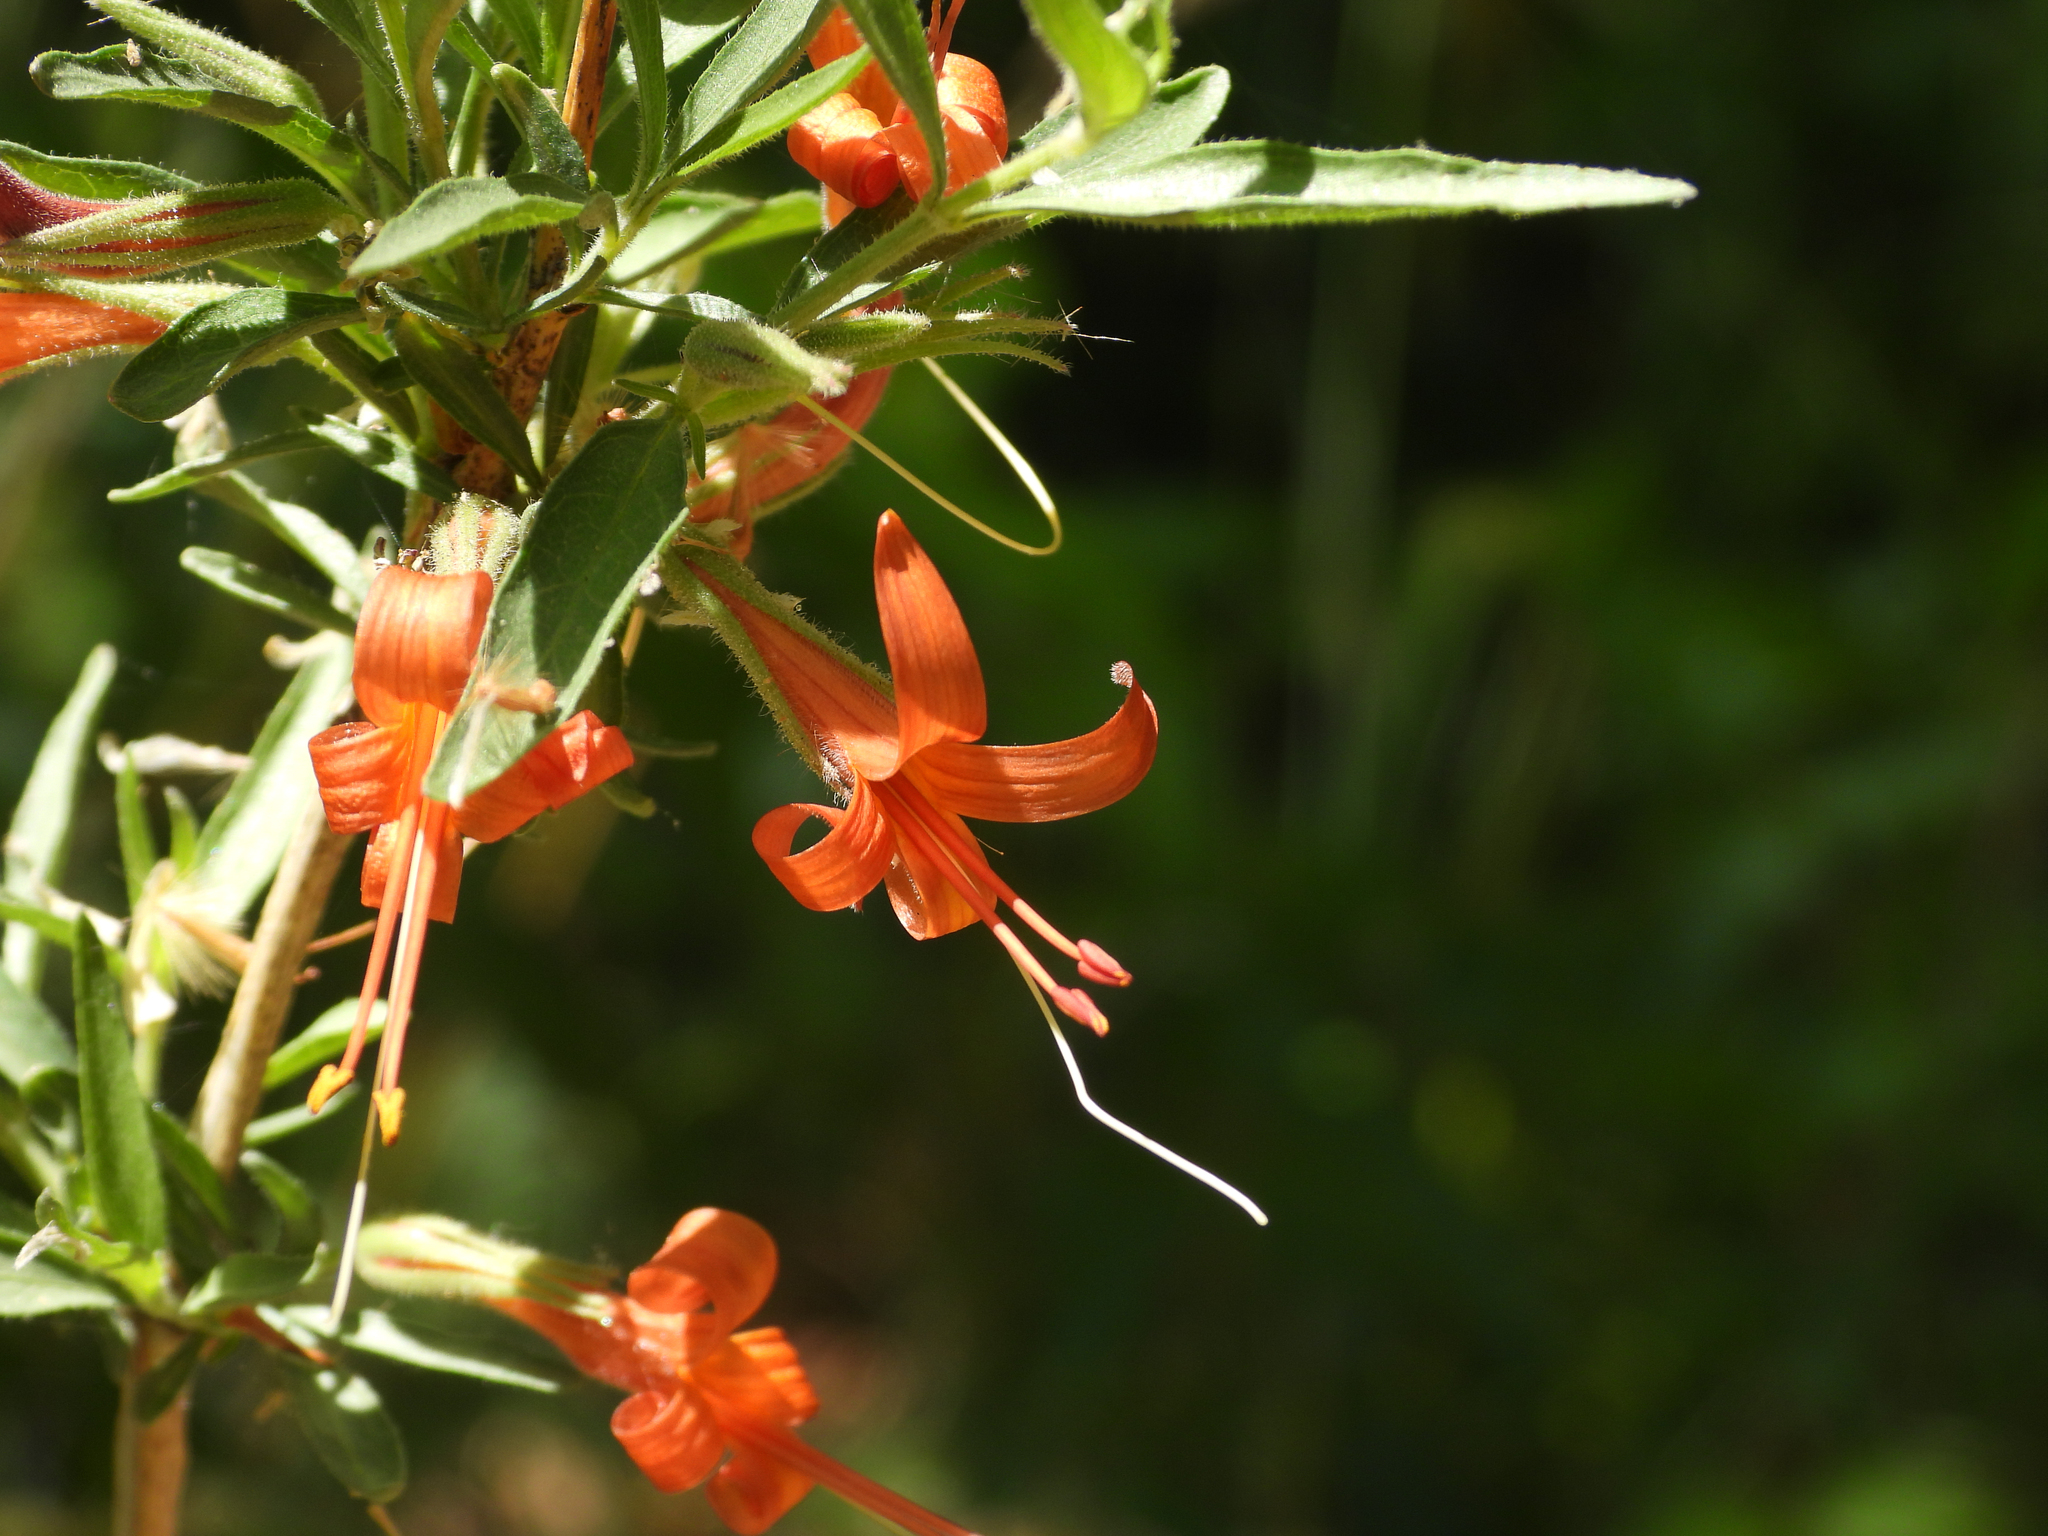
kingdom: Plantae
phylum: Tracheophyta
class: Magnoliopsida
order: Lamiales
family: Acanthaceae
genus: Anisacanthus
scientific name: Anisacanthus thurberi
